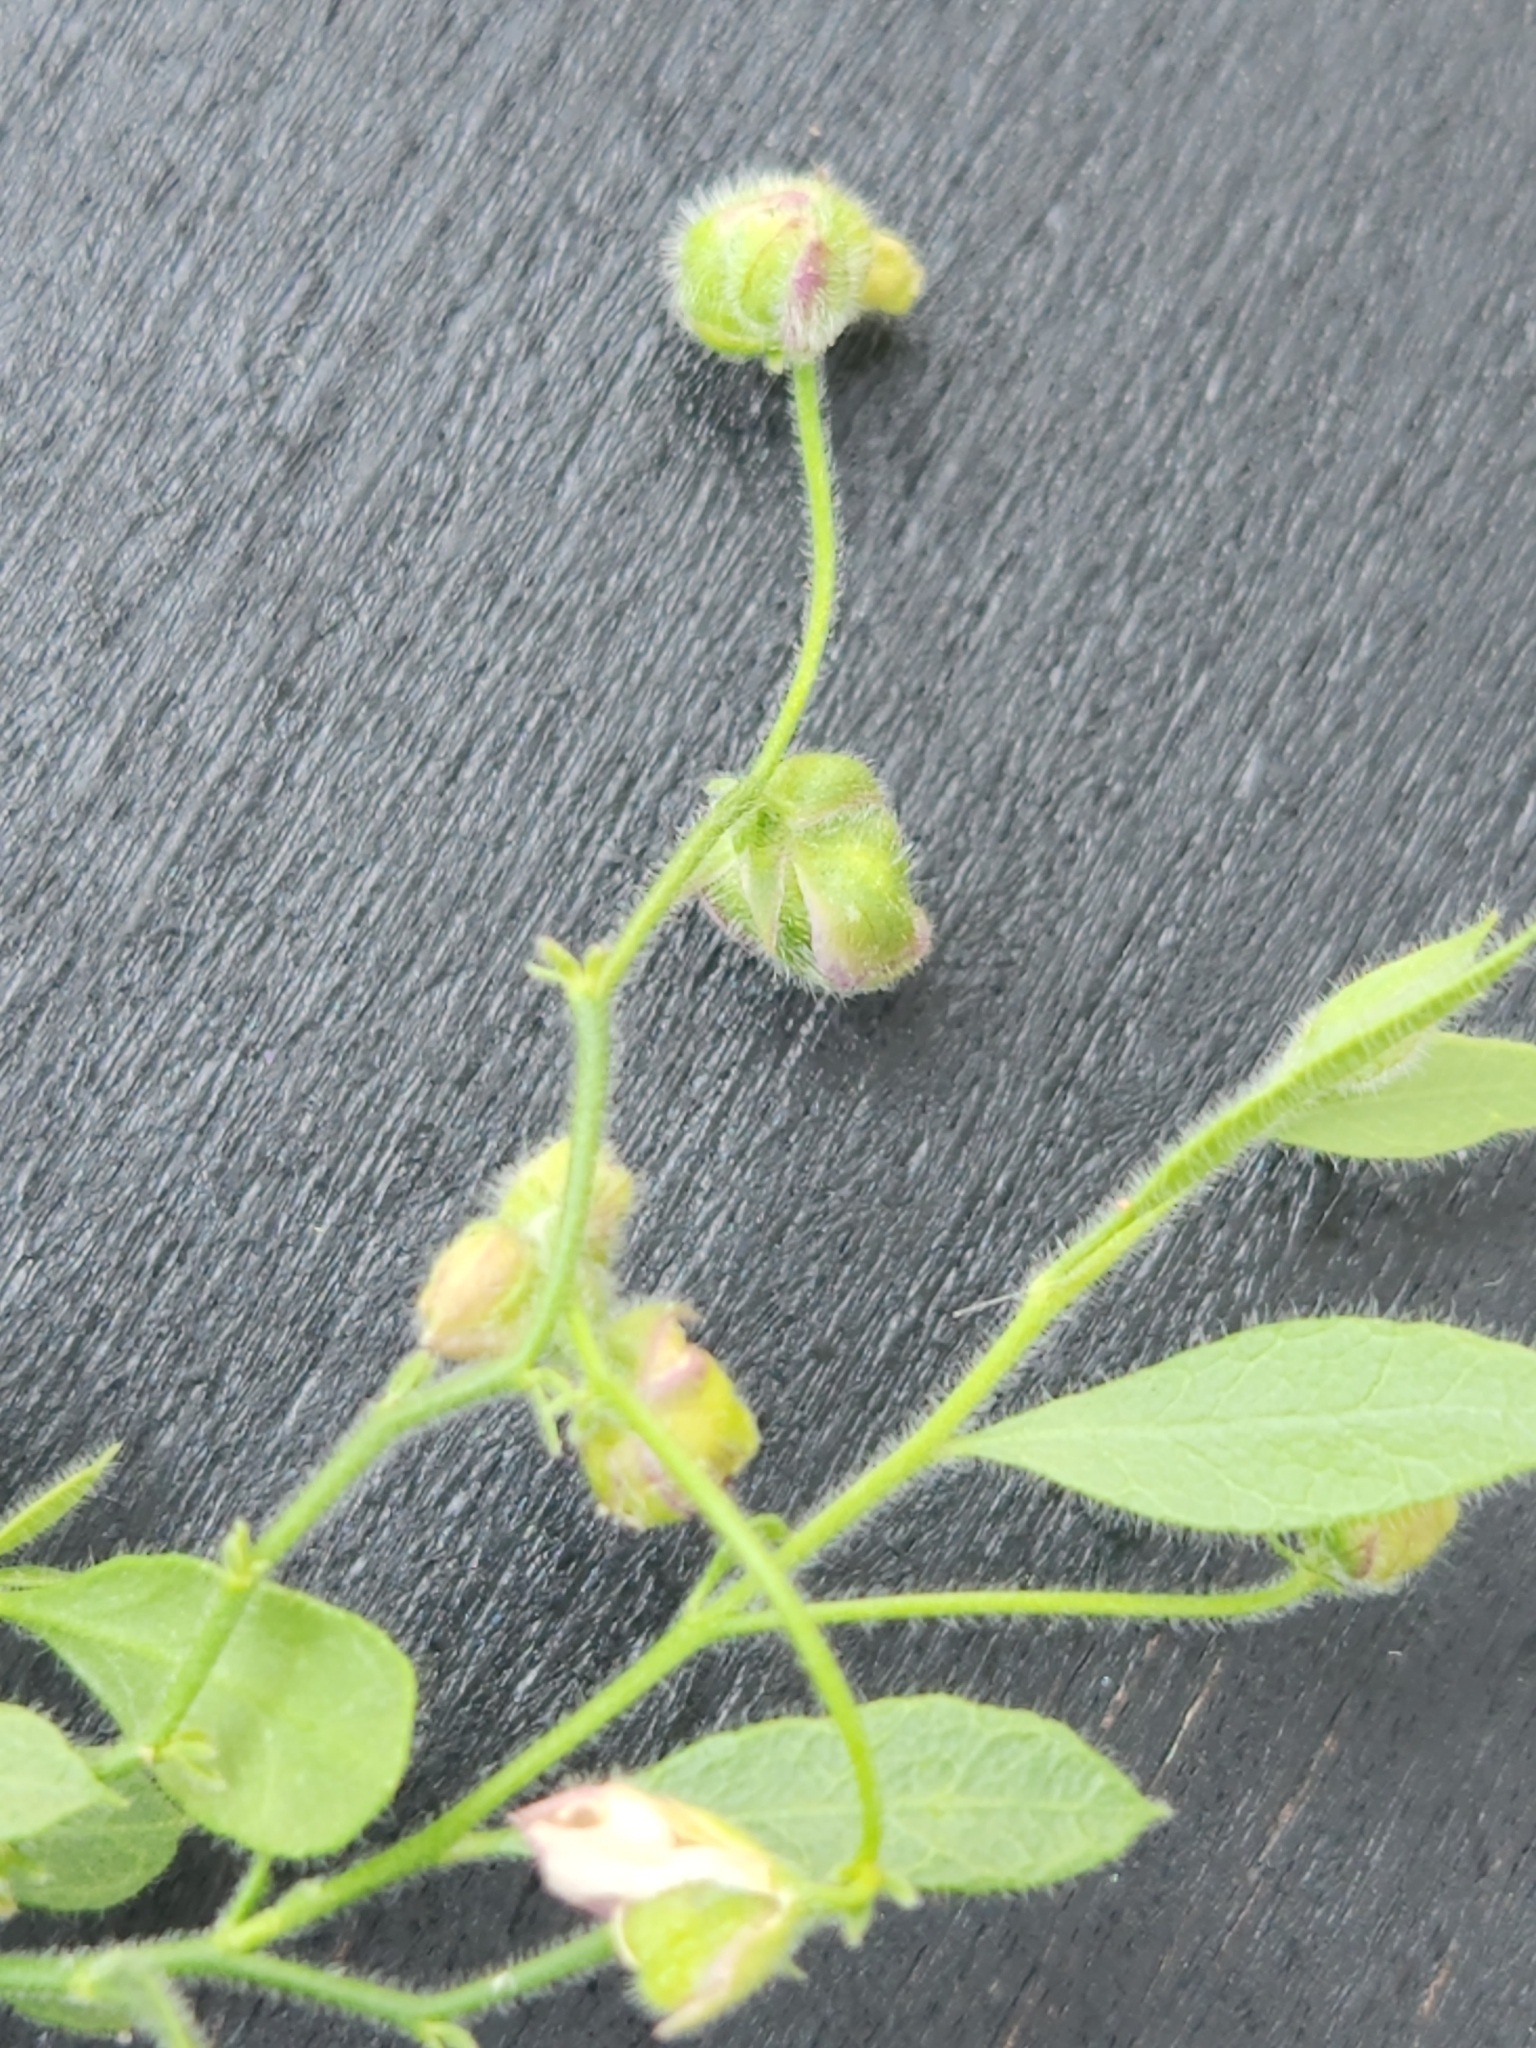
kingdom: Plantae
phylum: Tracheophyta
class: Magnoliopsida
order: Fabales
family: Polygalaceae
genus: Rhinotropis
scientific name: Rhinotropis lindheimeri
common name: Shrubby milkwort
